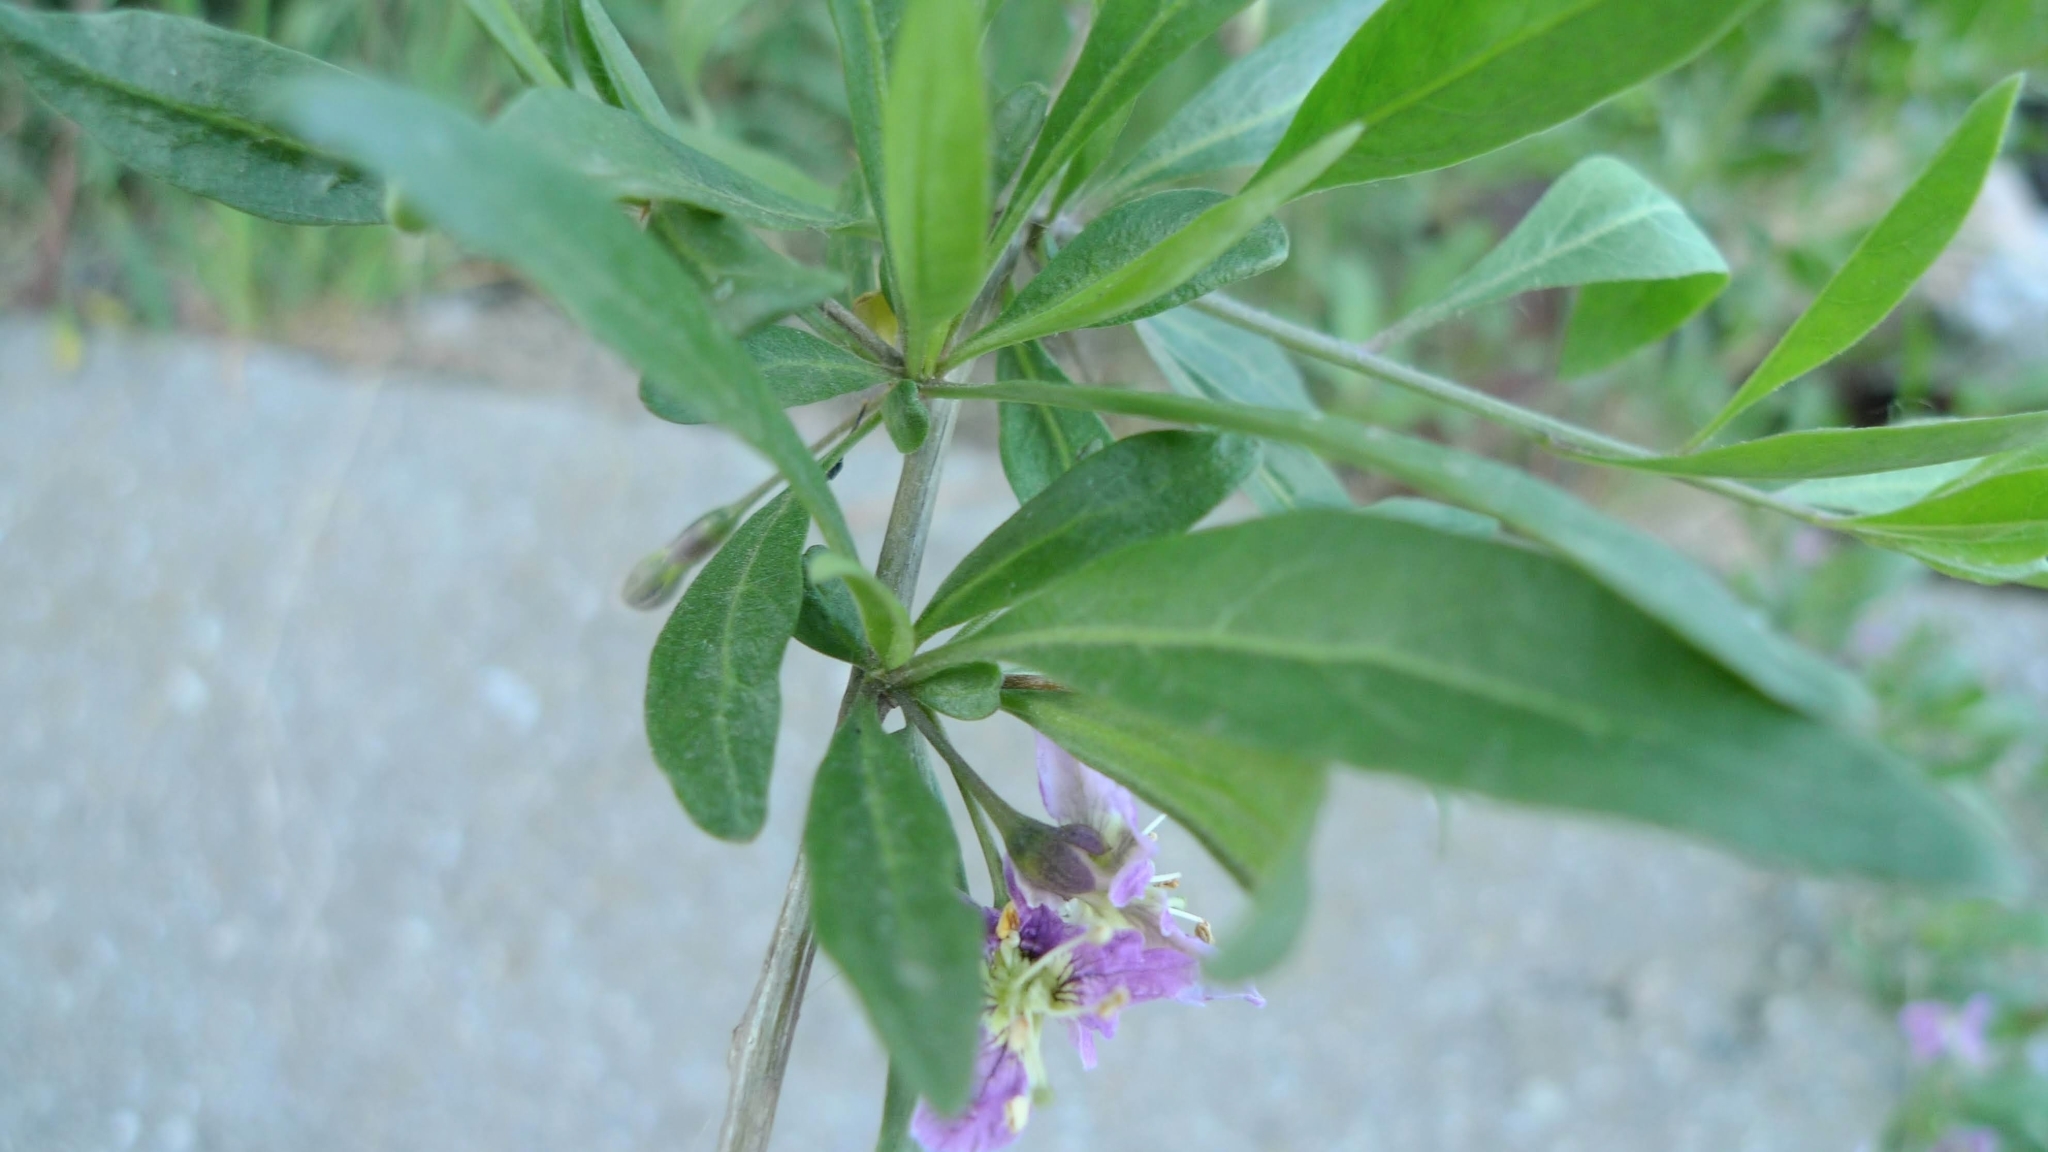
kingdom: Plantae
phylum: Tracheophyta
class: Magnoliopsida
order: Solanales
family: Solanaceae
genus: Lycium
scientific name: Lycium barbarum
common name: Duke of argyll's teaplant
